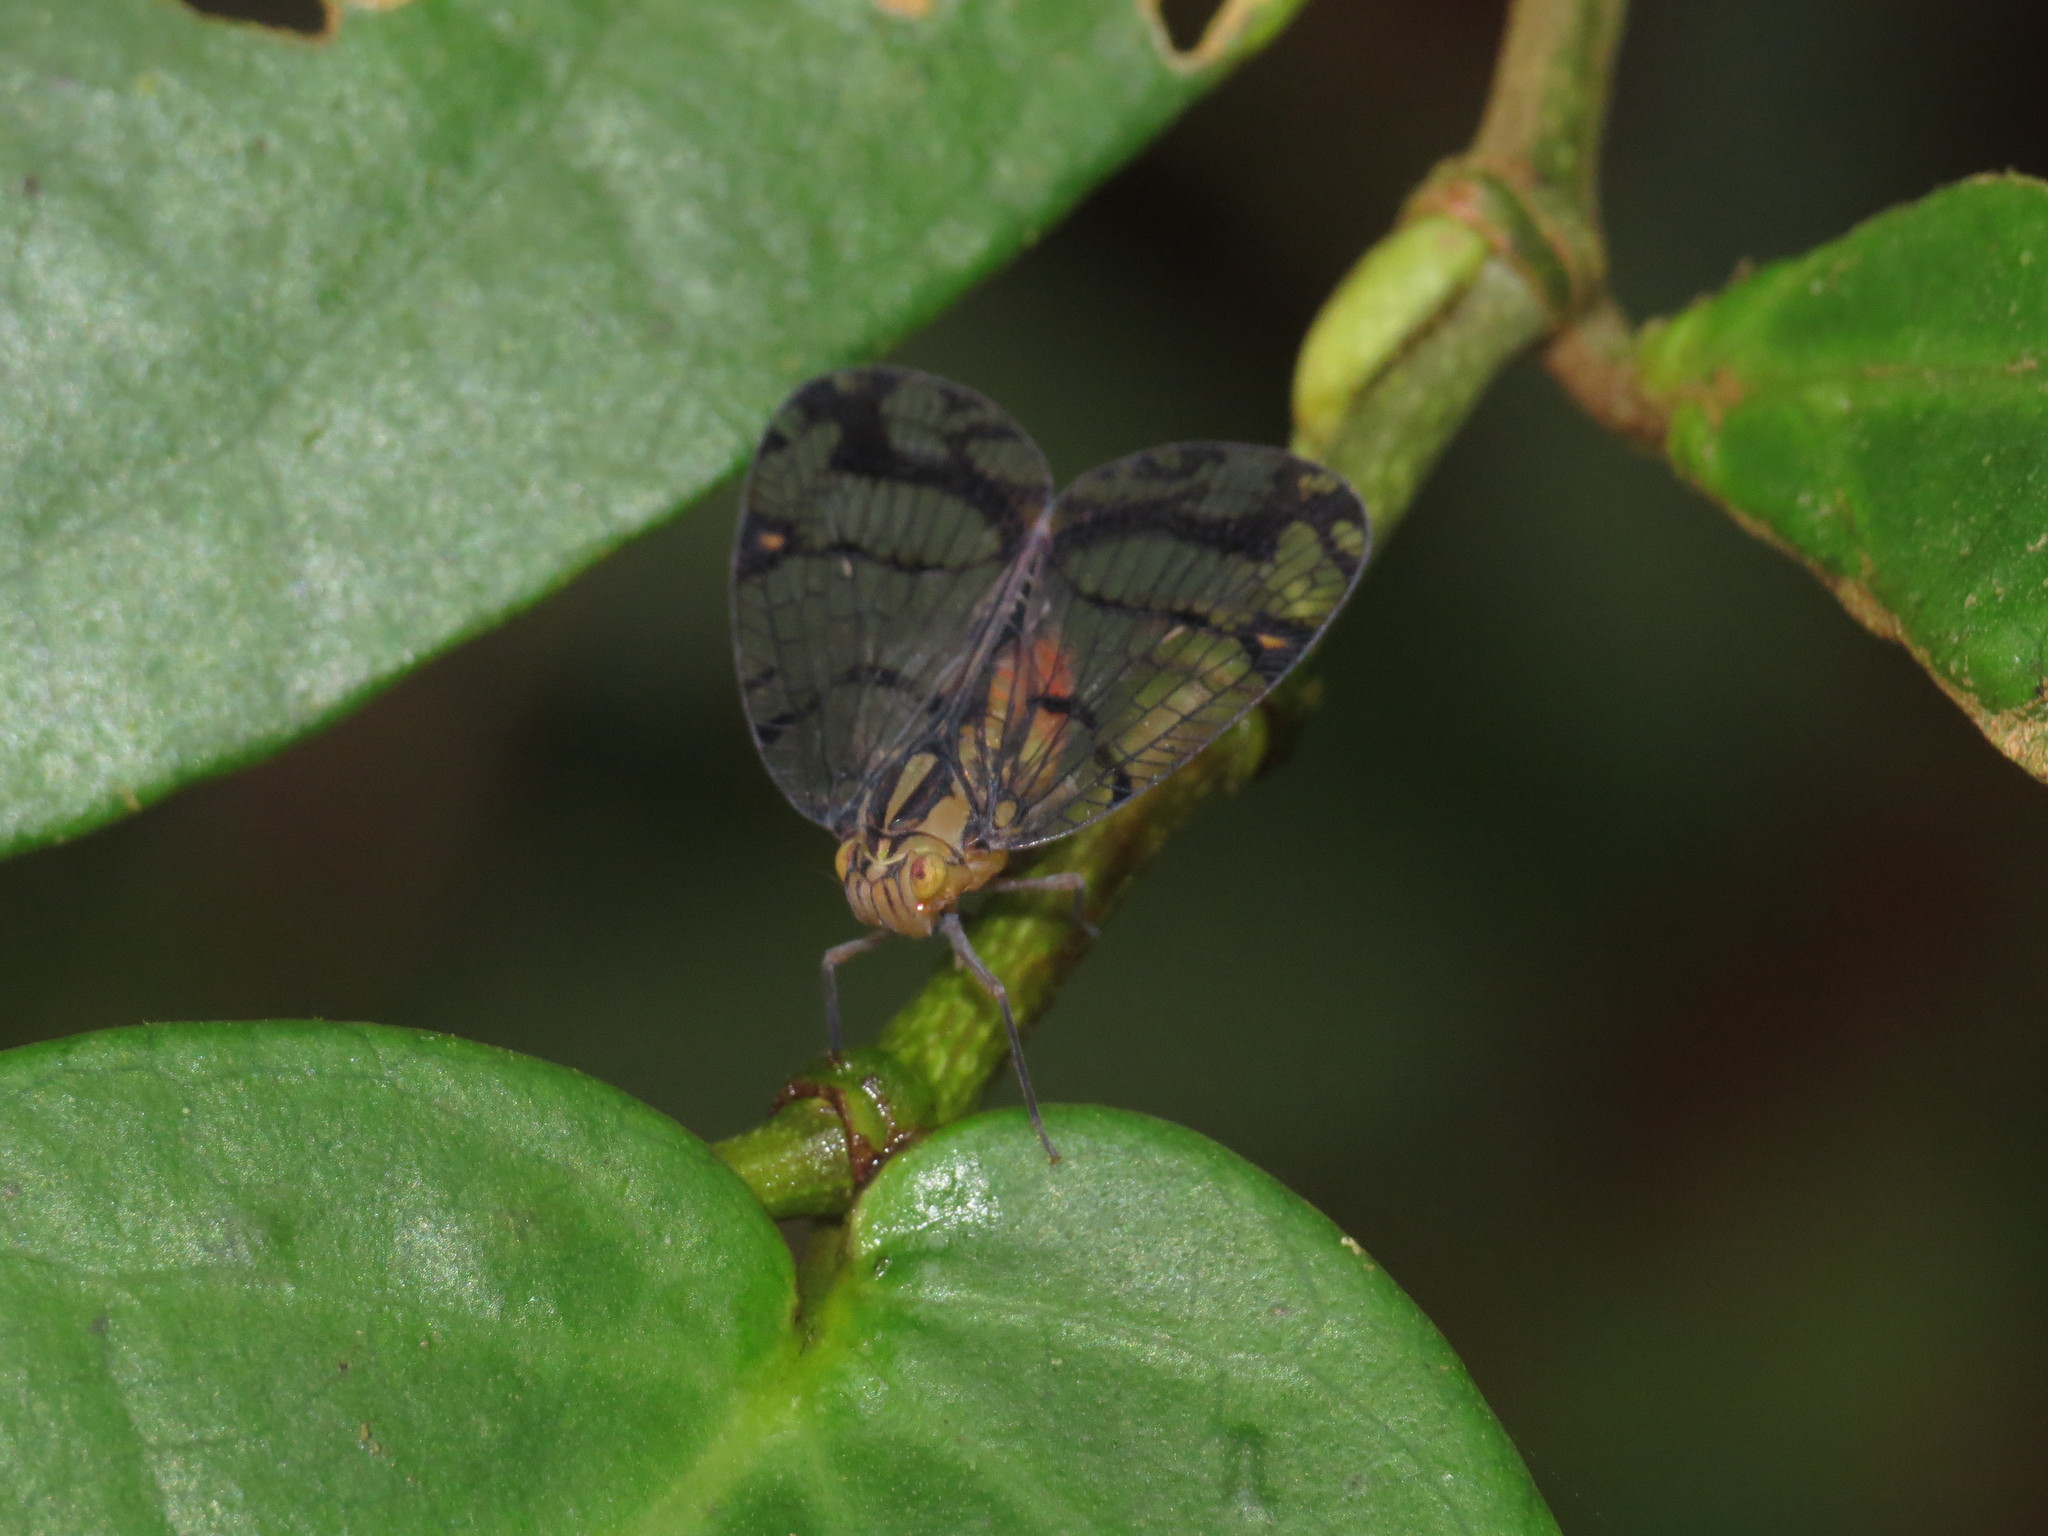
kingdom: Animalia
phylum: Arthropoda
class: Insecta
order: Hemiptera
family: Nogodinidae
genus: Biolleyana
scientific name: Biolleyana costalis
